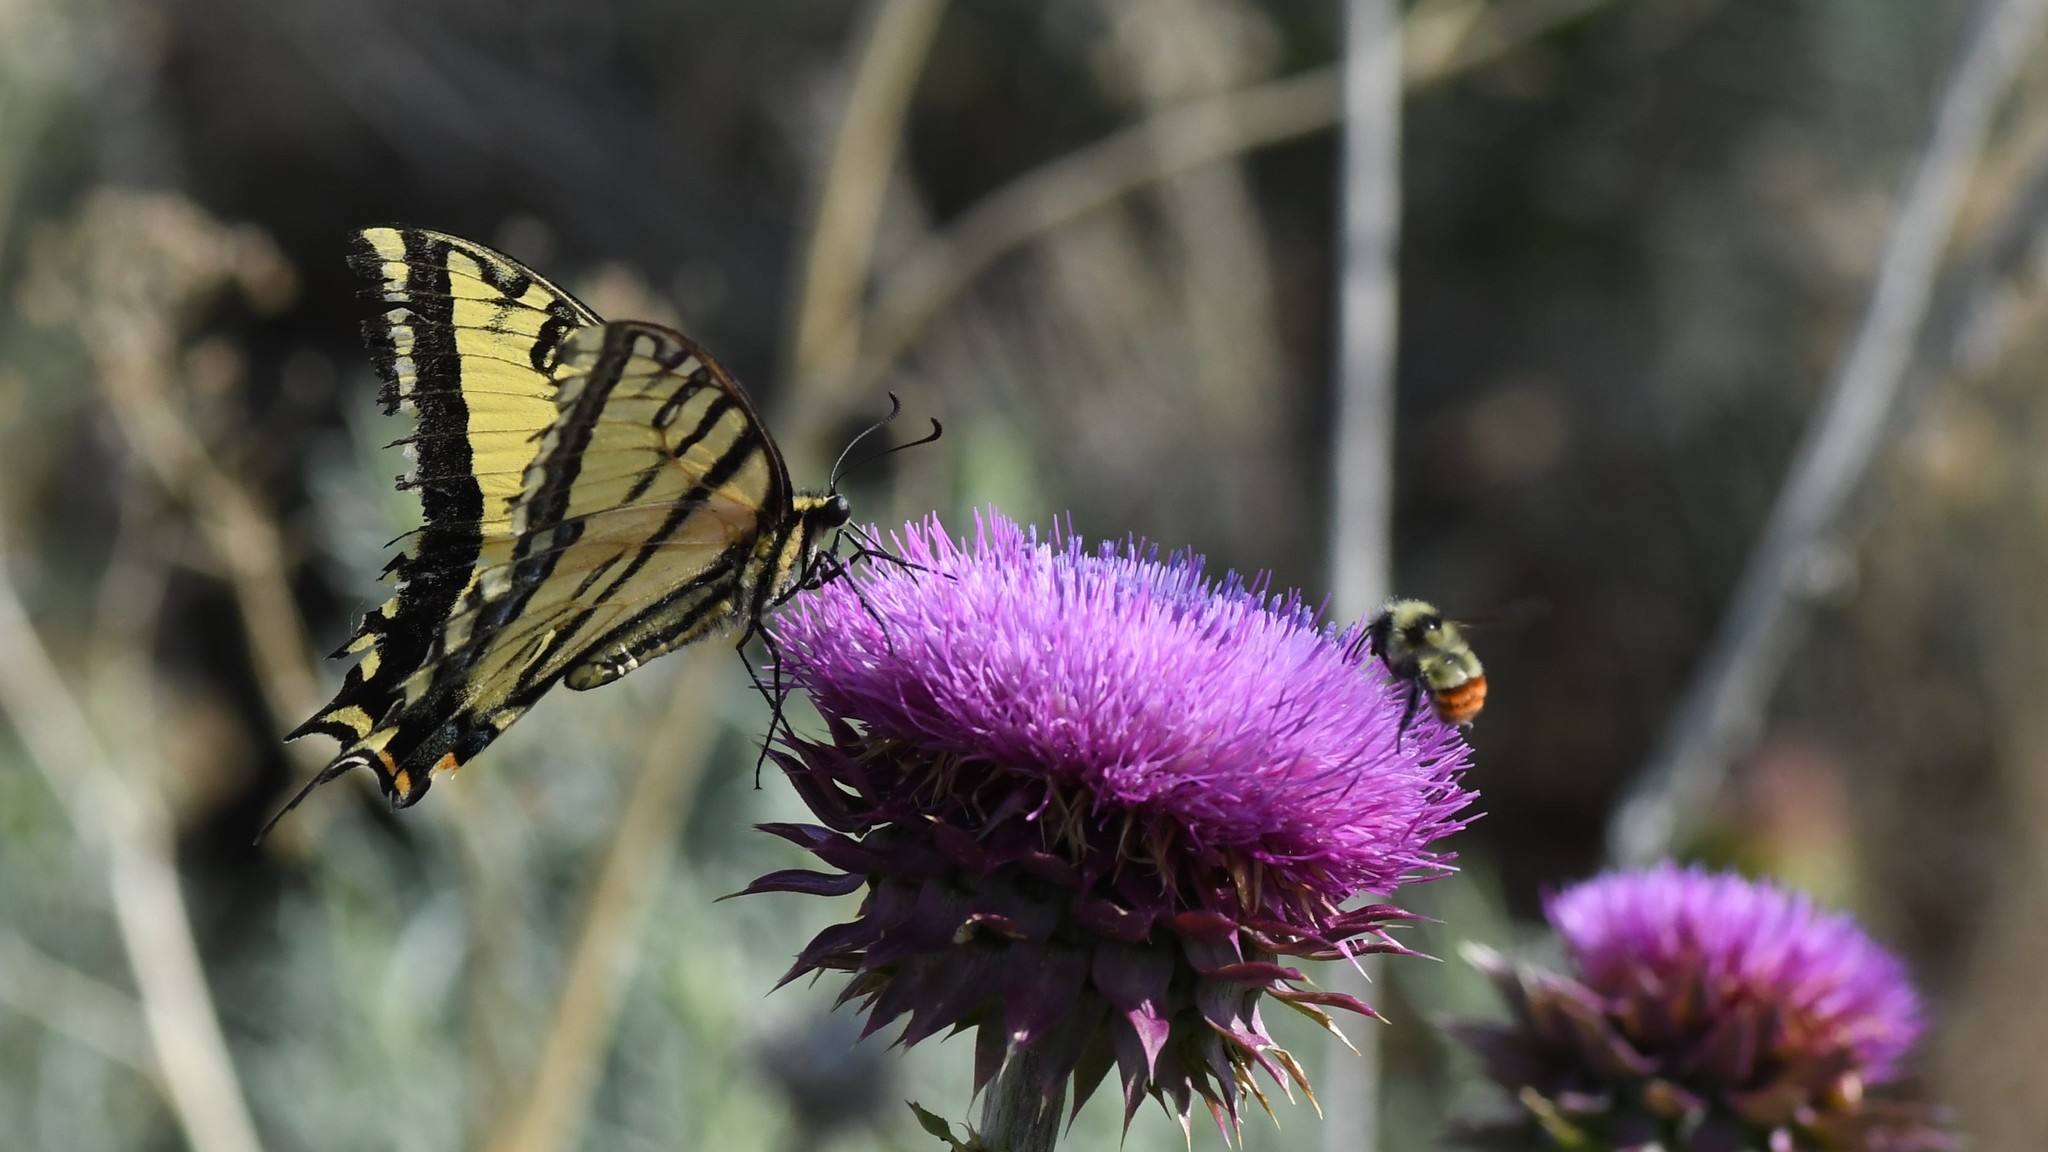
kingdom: Animalia
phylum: Arthropoda
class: Insecta
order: Lepidoptera
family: Papilionidae
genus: Papilio
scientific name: Papilio multicaudata
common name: Two-tailed tiger swallowtail
